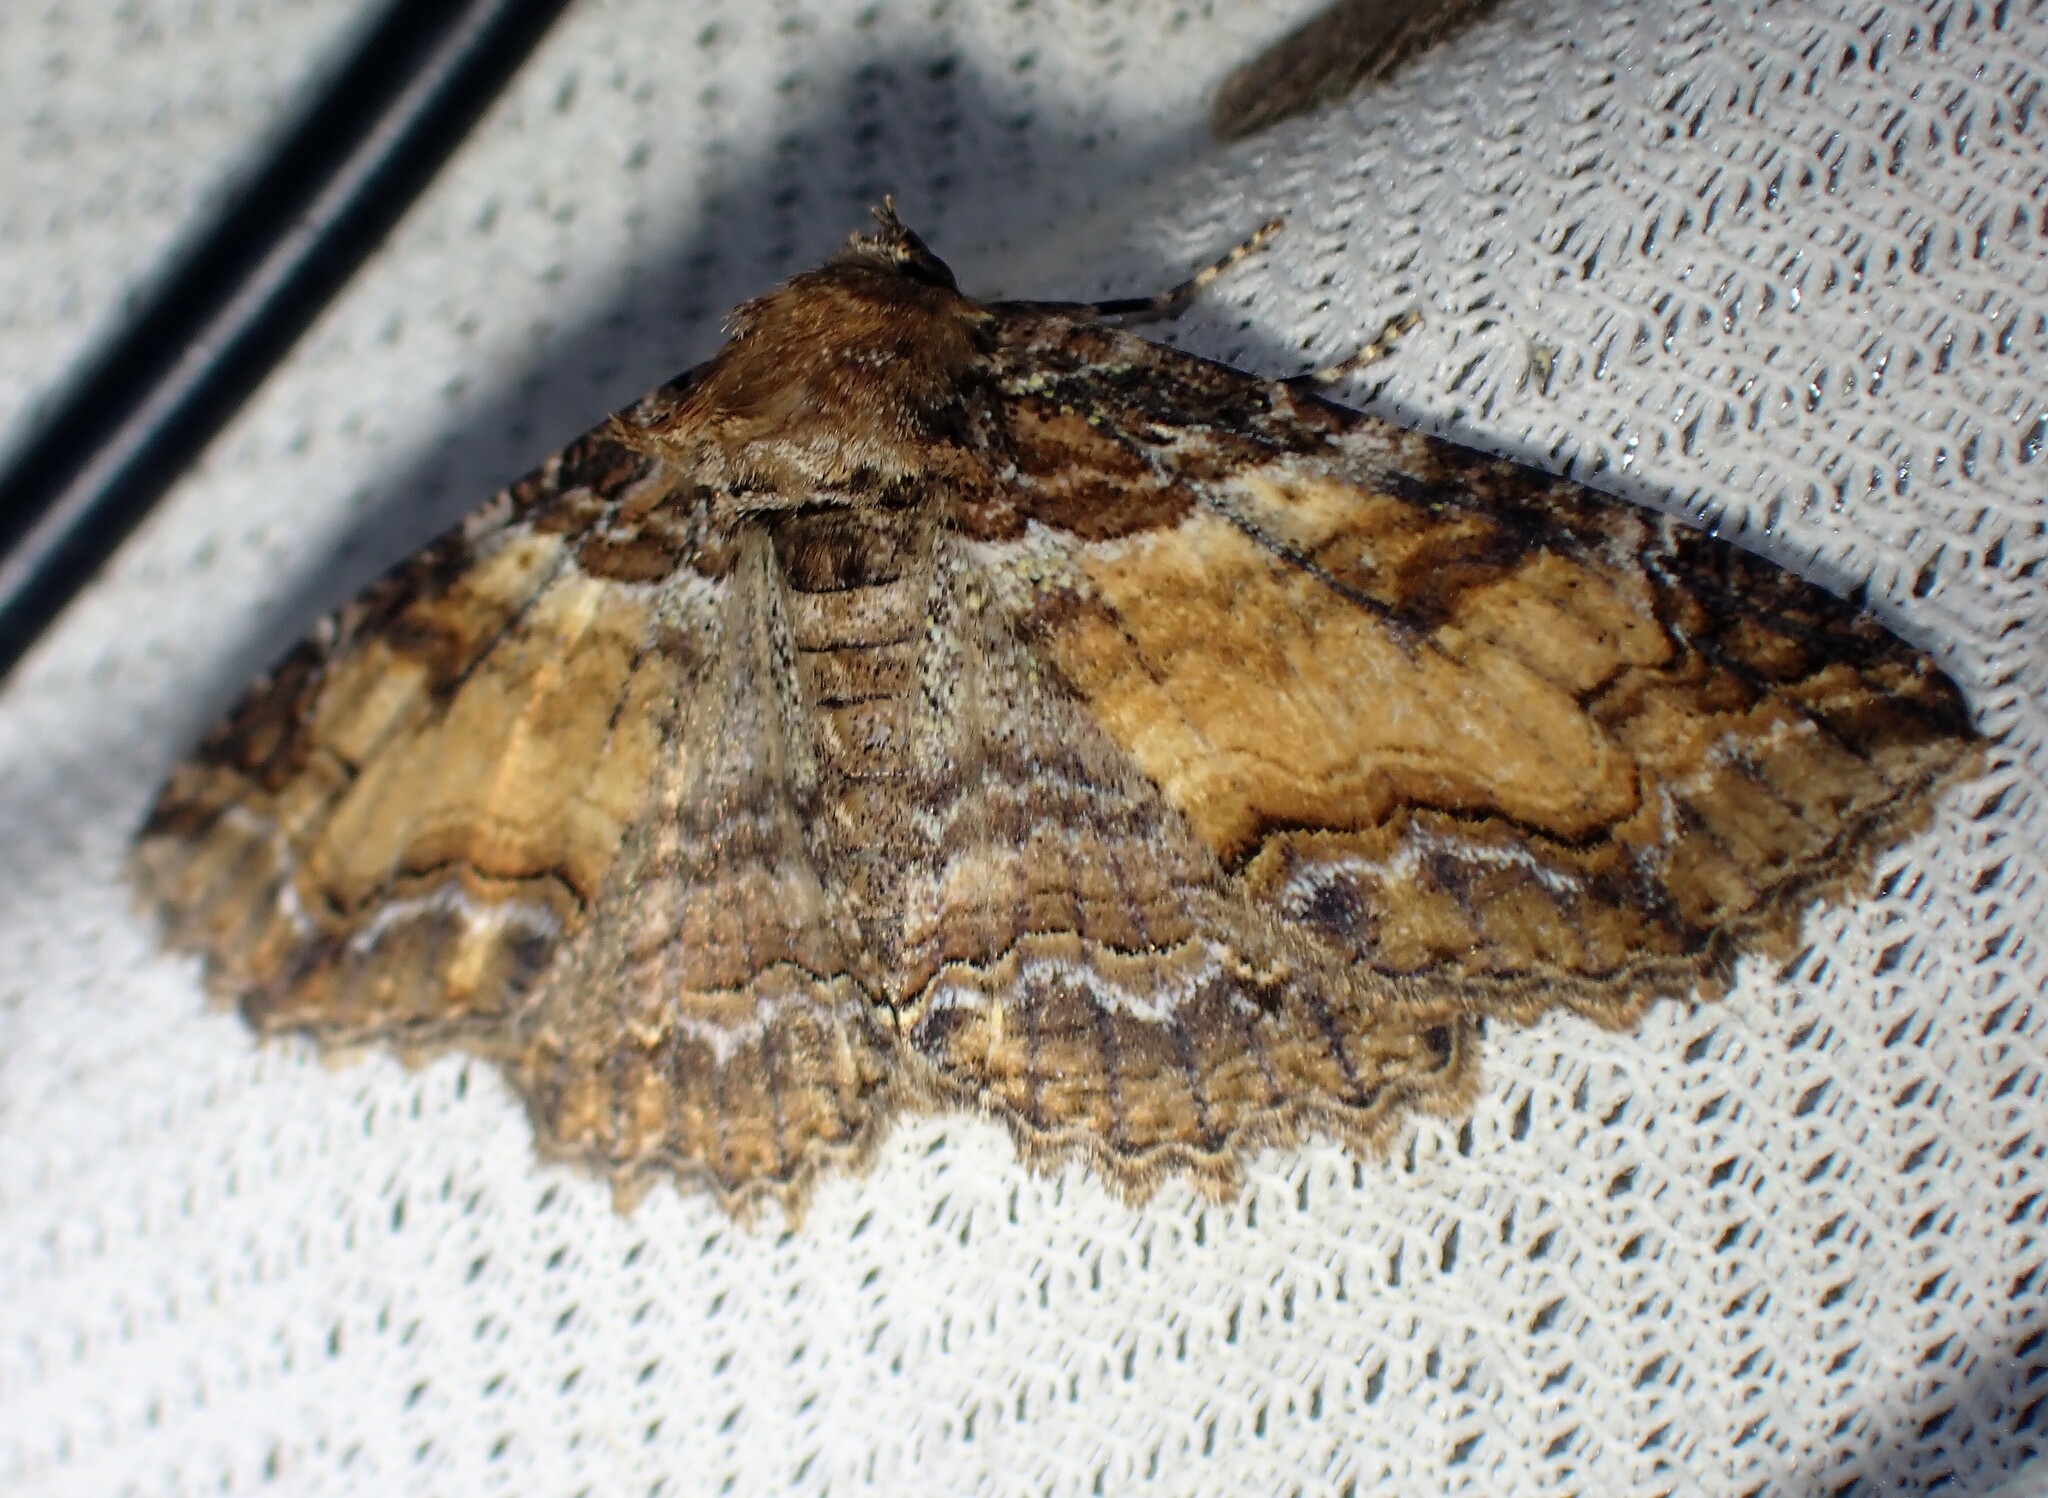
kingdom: Animalia
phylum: Arthropoda
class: Insecta
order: Lepidoptera
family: Erebidae
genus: Zale
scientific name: Zale minerea
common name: Colorful zale moth
